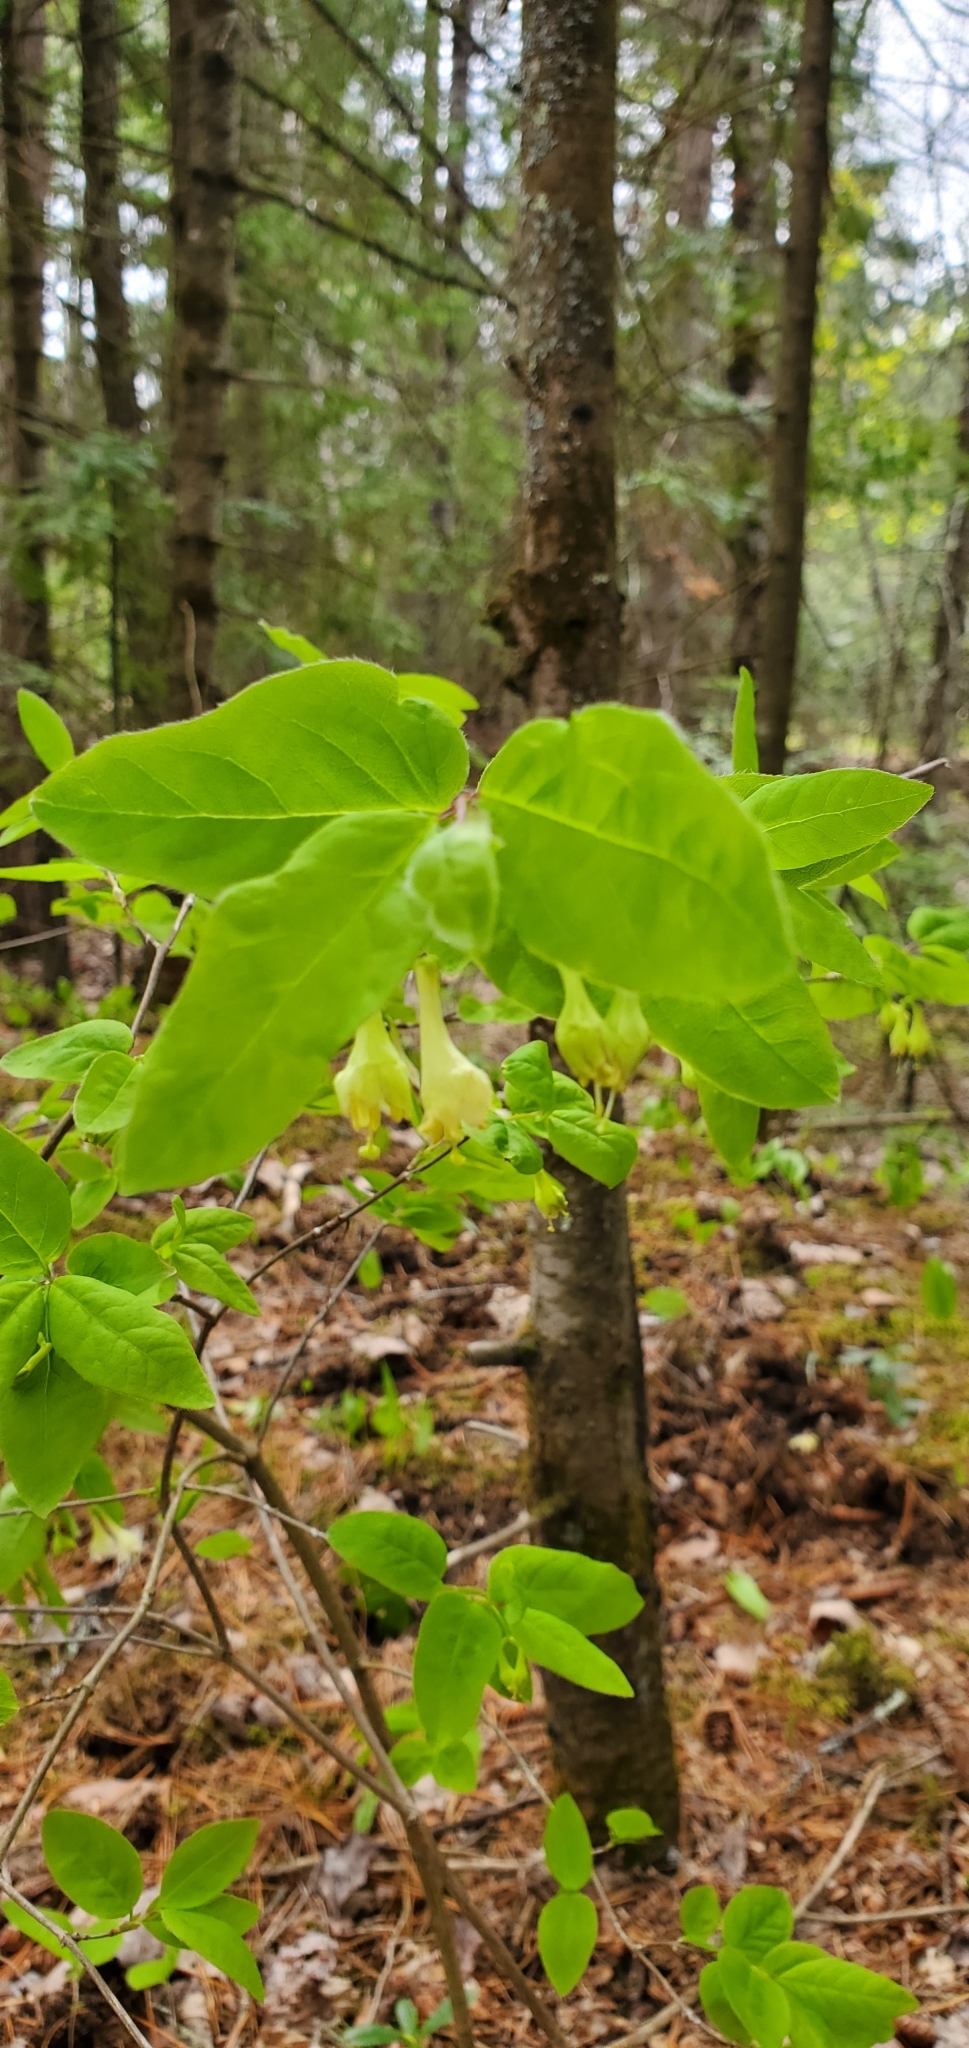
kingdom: Plantae
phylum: Tracheophyta
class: Magnoliopsida
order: Dipsacales
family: Caprifoliaceae
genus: Lonicera
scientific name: Lonicera canadensis
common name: American fly-honeysuckle
